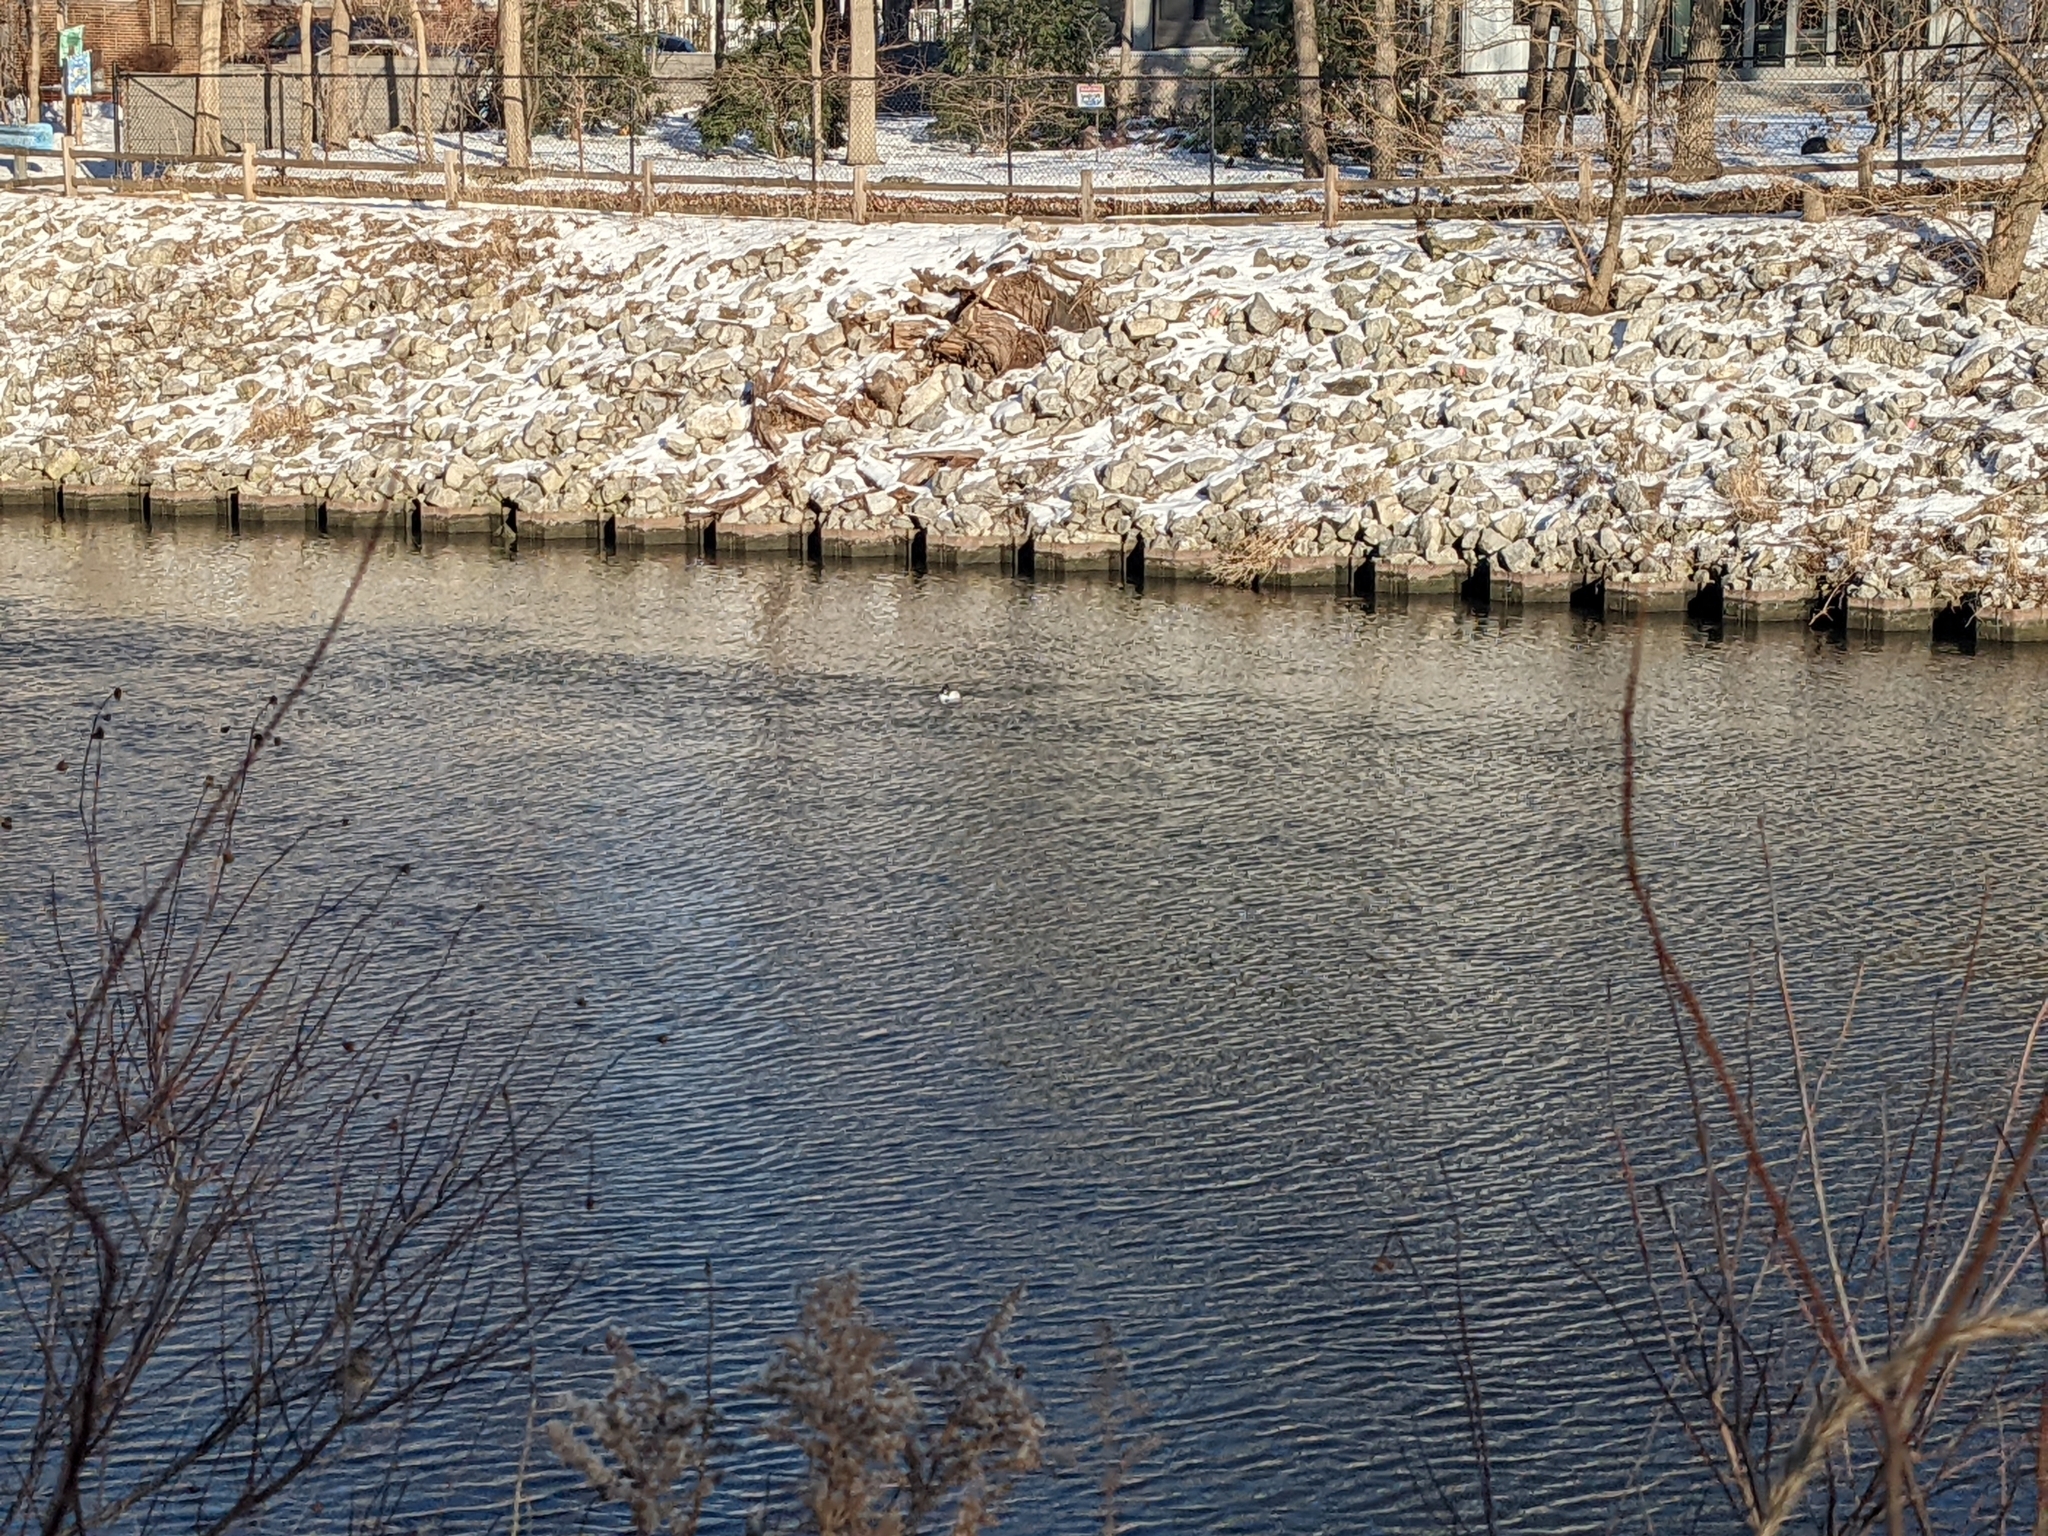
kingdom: Animalia
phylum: Chordata
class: Aves
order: Anseriformes
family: Anatidae
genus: Bucephala
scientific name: Bucephala clangula
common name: Common goldeneye
